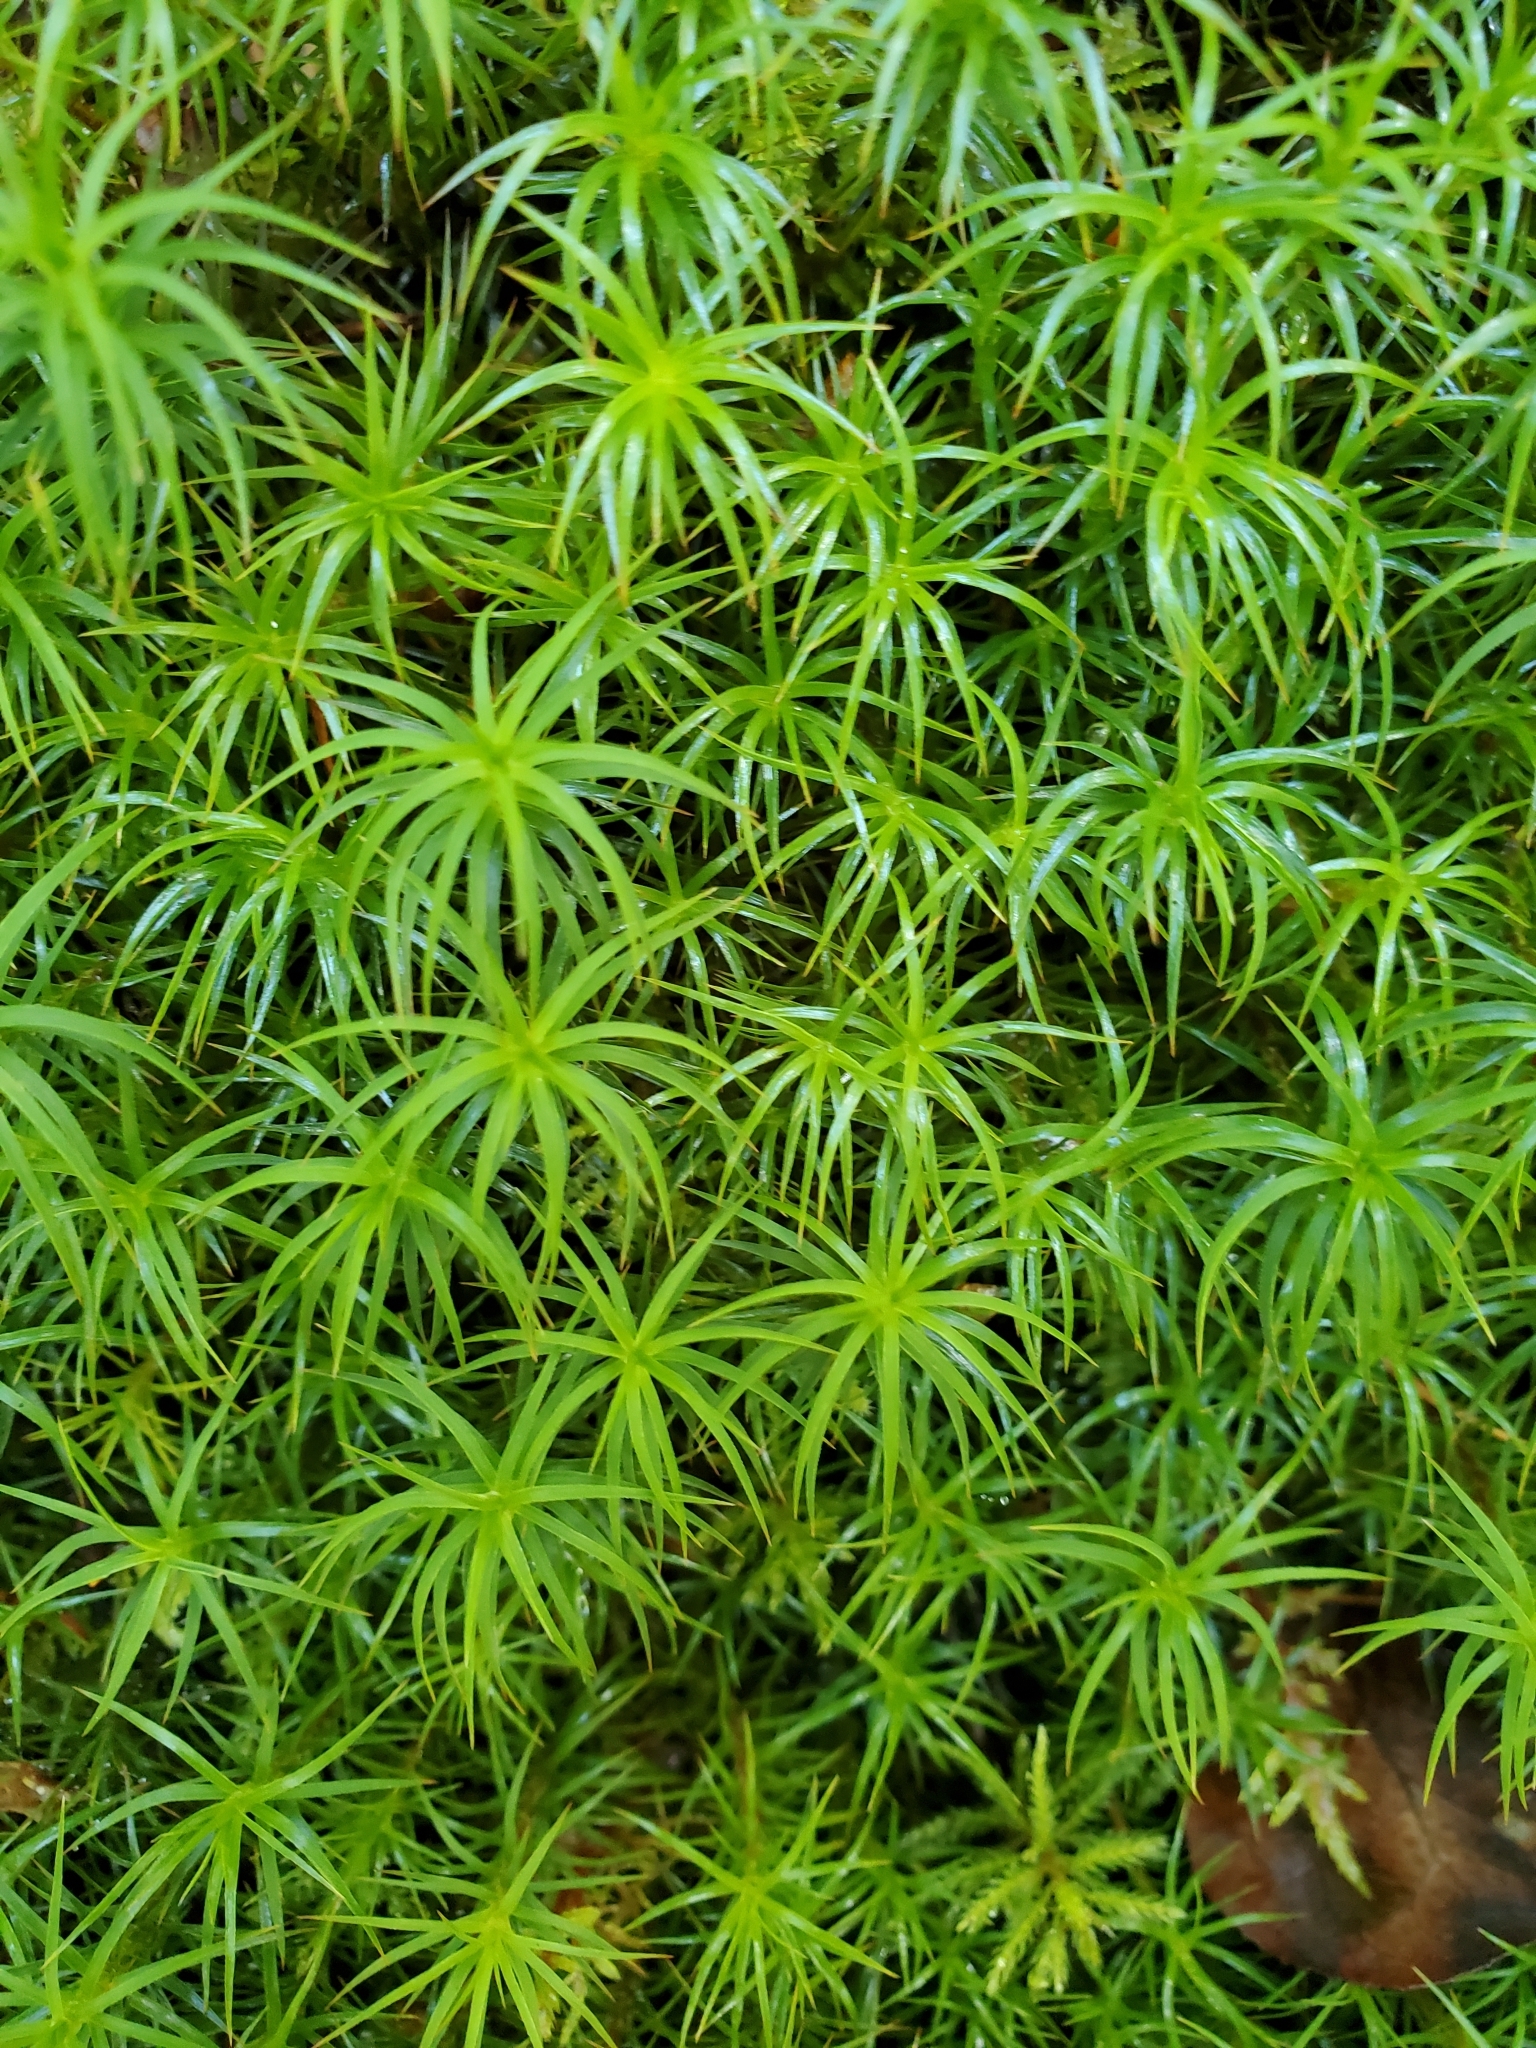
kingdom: Plantae
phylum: Bryophyta
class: Polytrichopsida
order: Polytrichales
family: Polytrichaceae
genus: Polytrichastrum
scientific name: Polytrichastrum alpinum
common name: Alpine haircap
